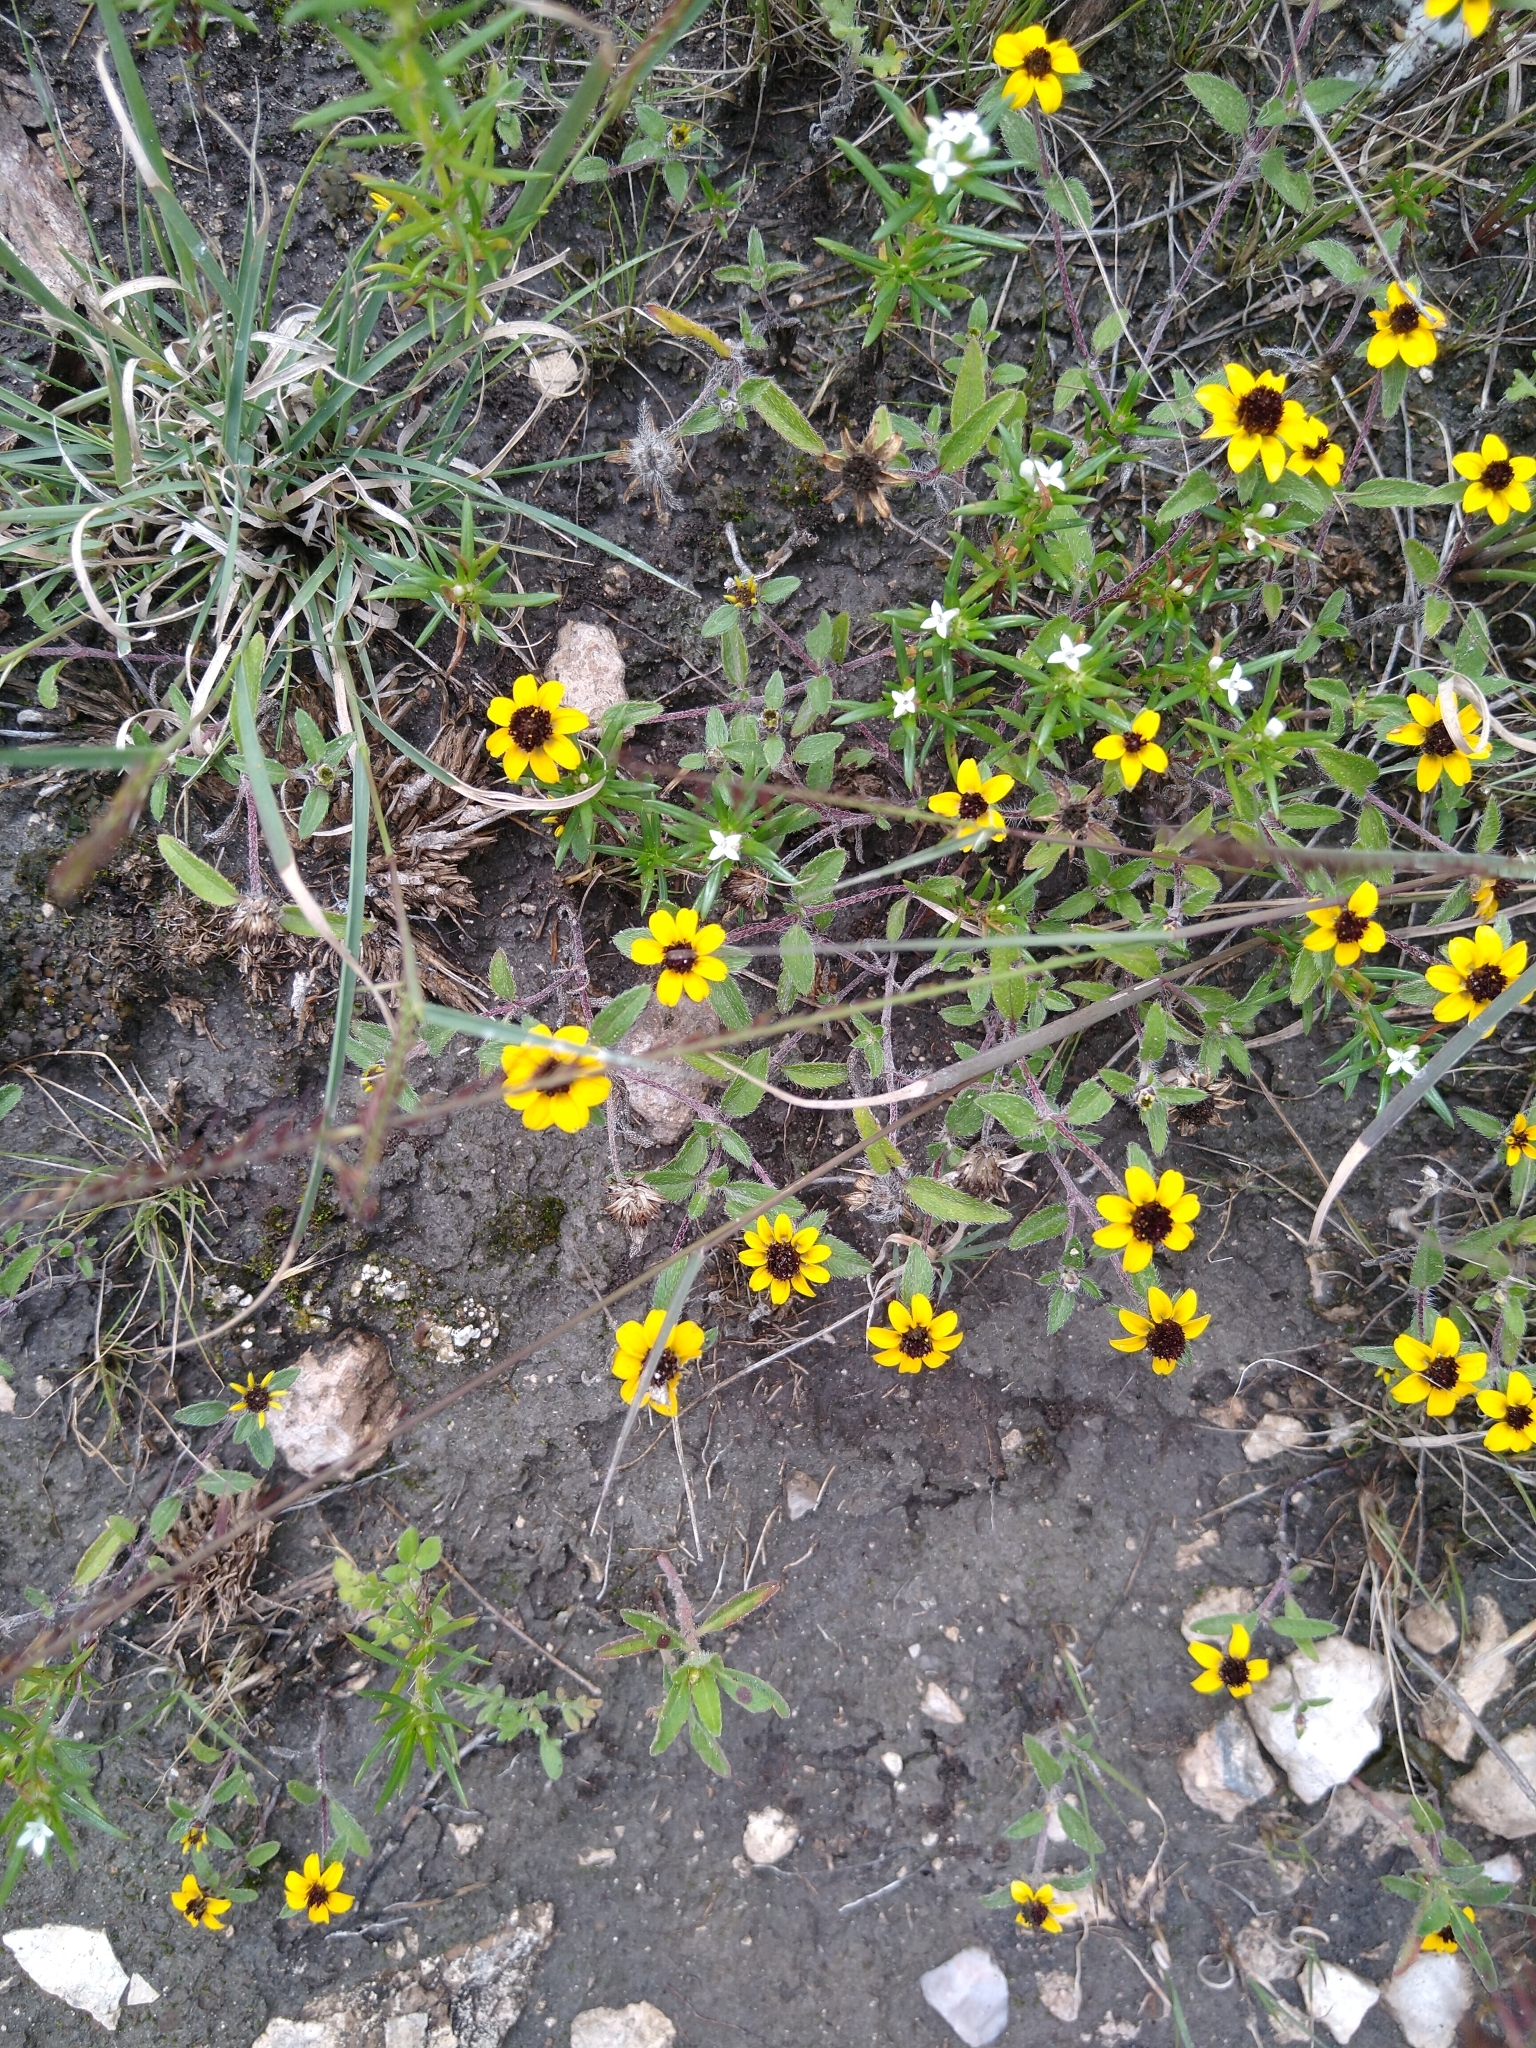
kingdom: Plantae
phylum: Tracheophyta
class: Magnoliopsida
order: Asterales
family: Asteraceae
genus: Sanvitalia
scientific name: Sanvitalia procumbens
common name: Mexican creeping zinnia
